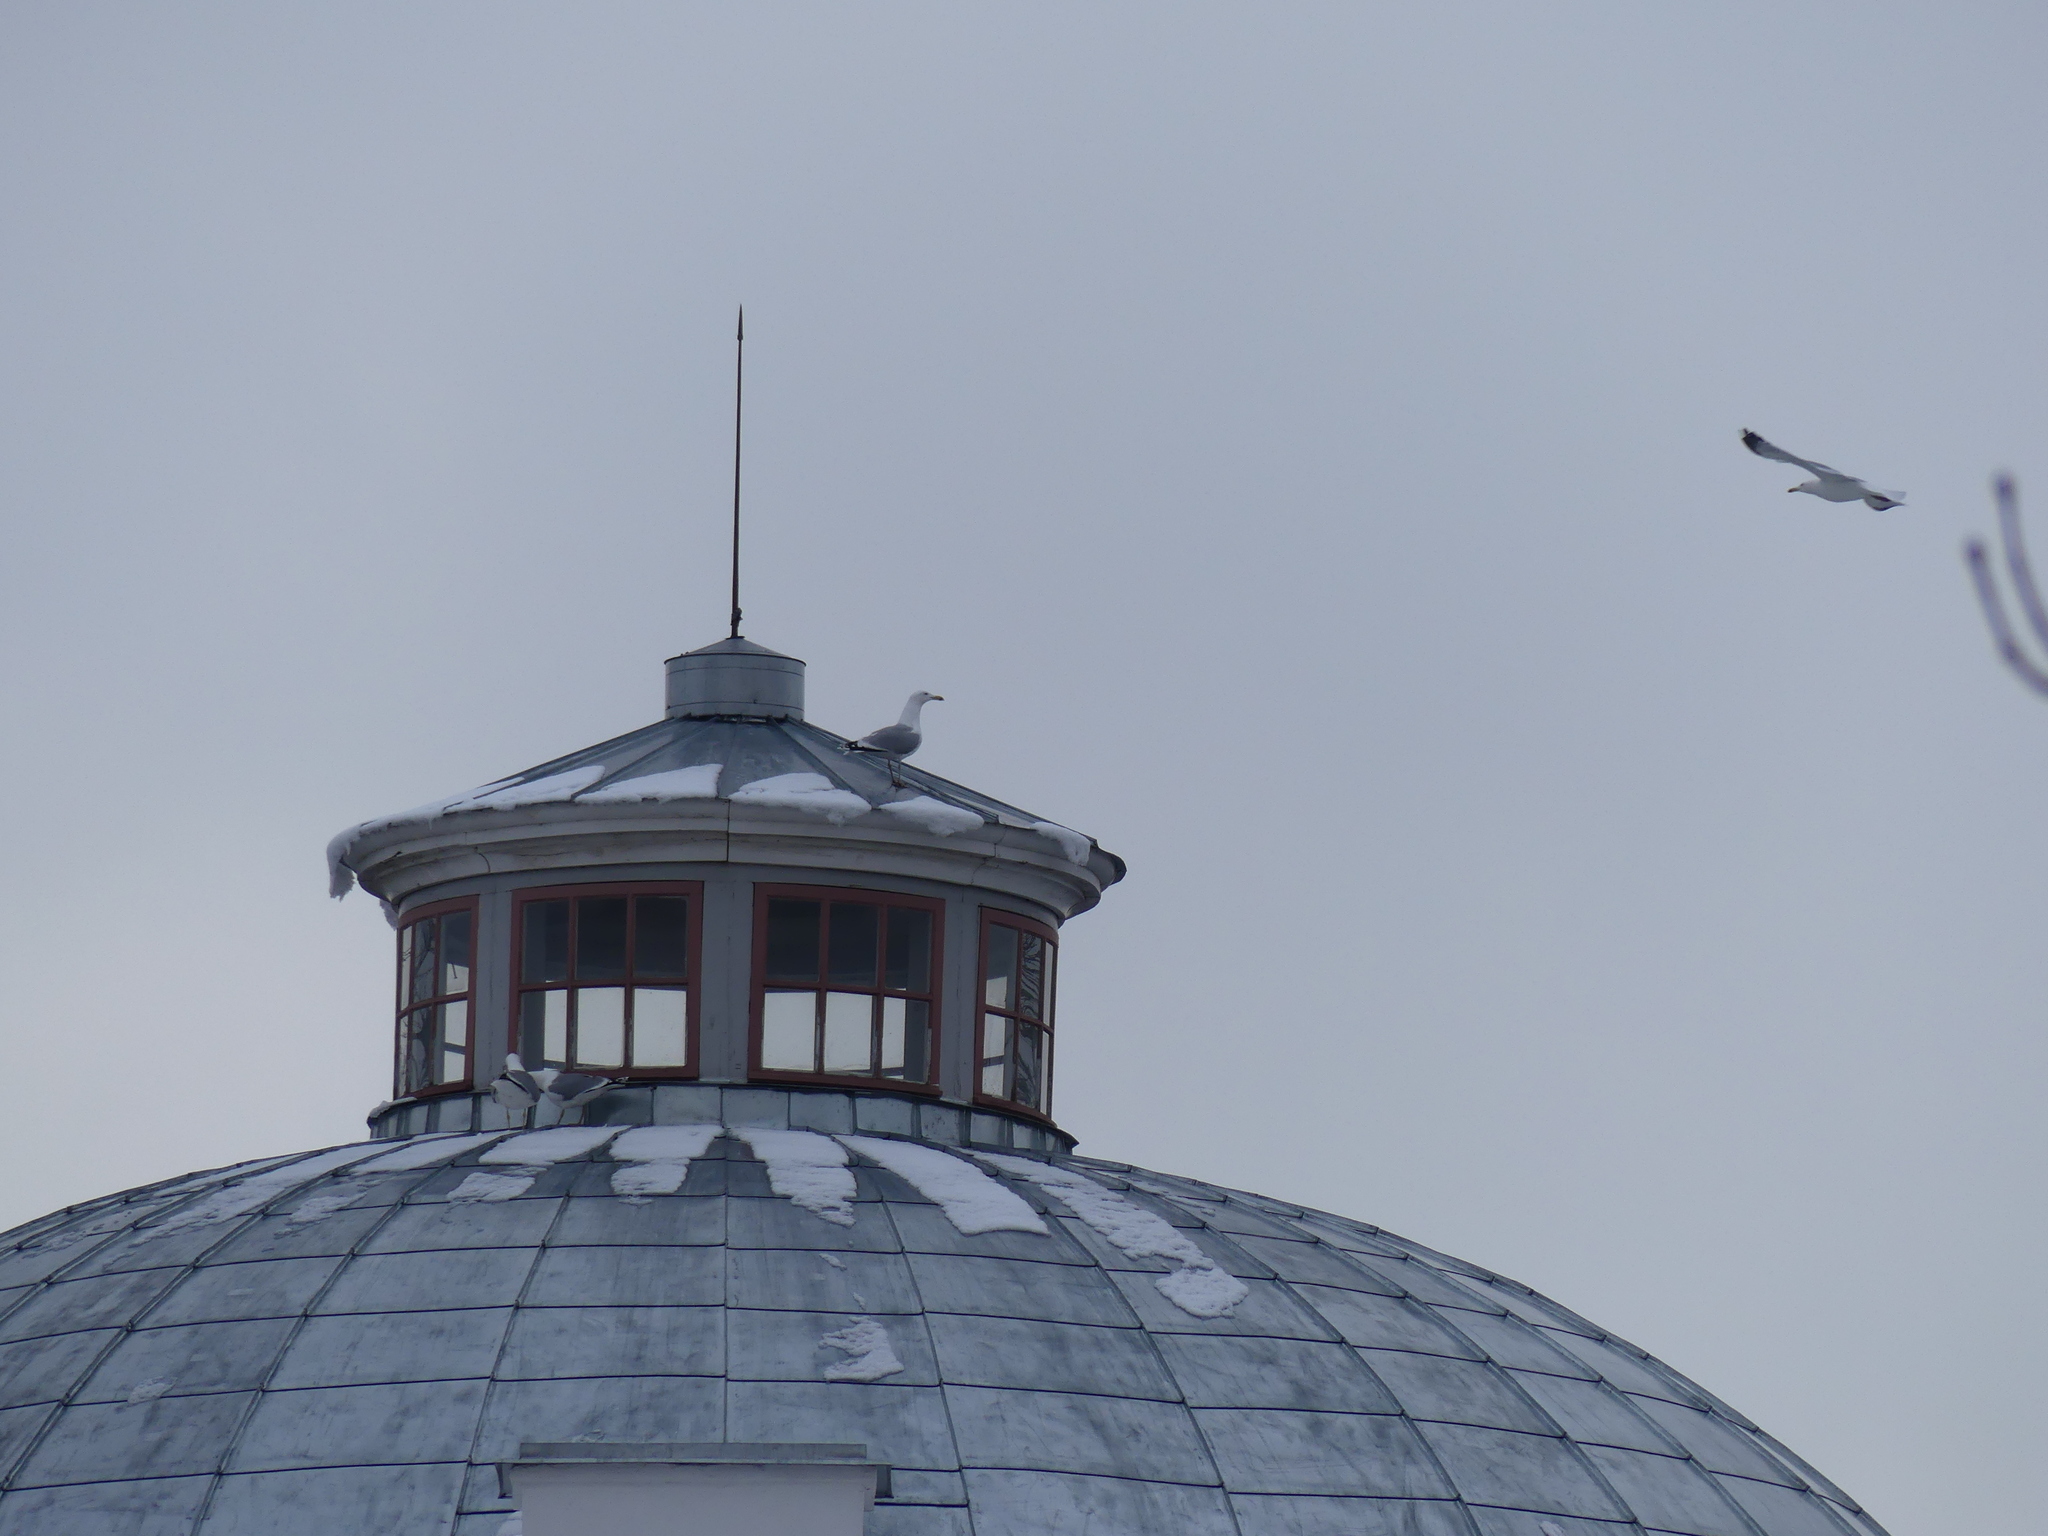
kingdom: Animalia
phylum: Chordata
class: Aves
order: Charadriiformes
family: Laridae
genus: Larus
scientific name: Larus argentatus
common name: Herring gull
